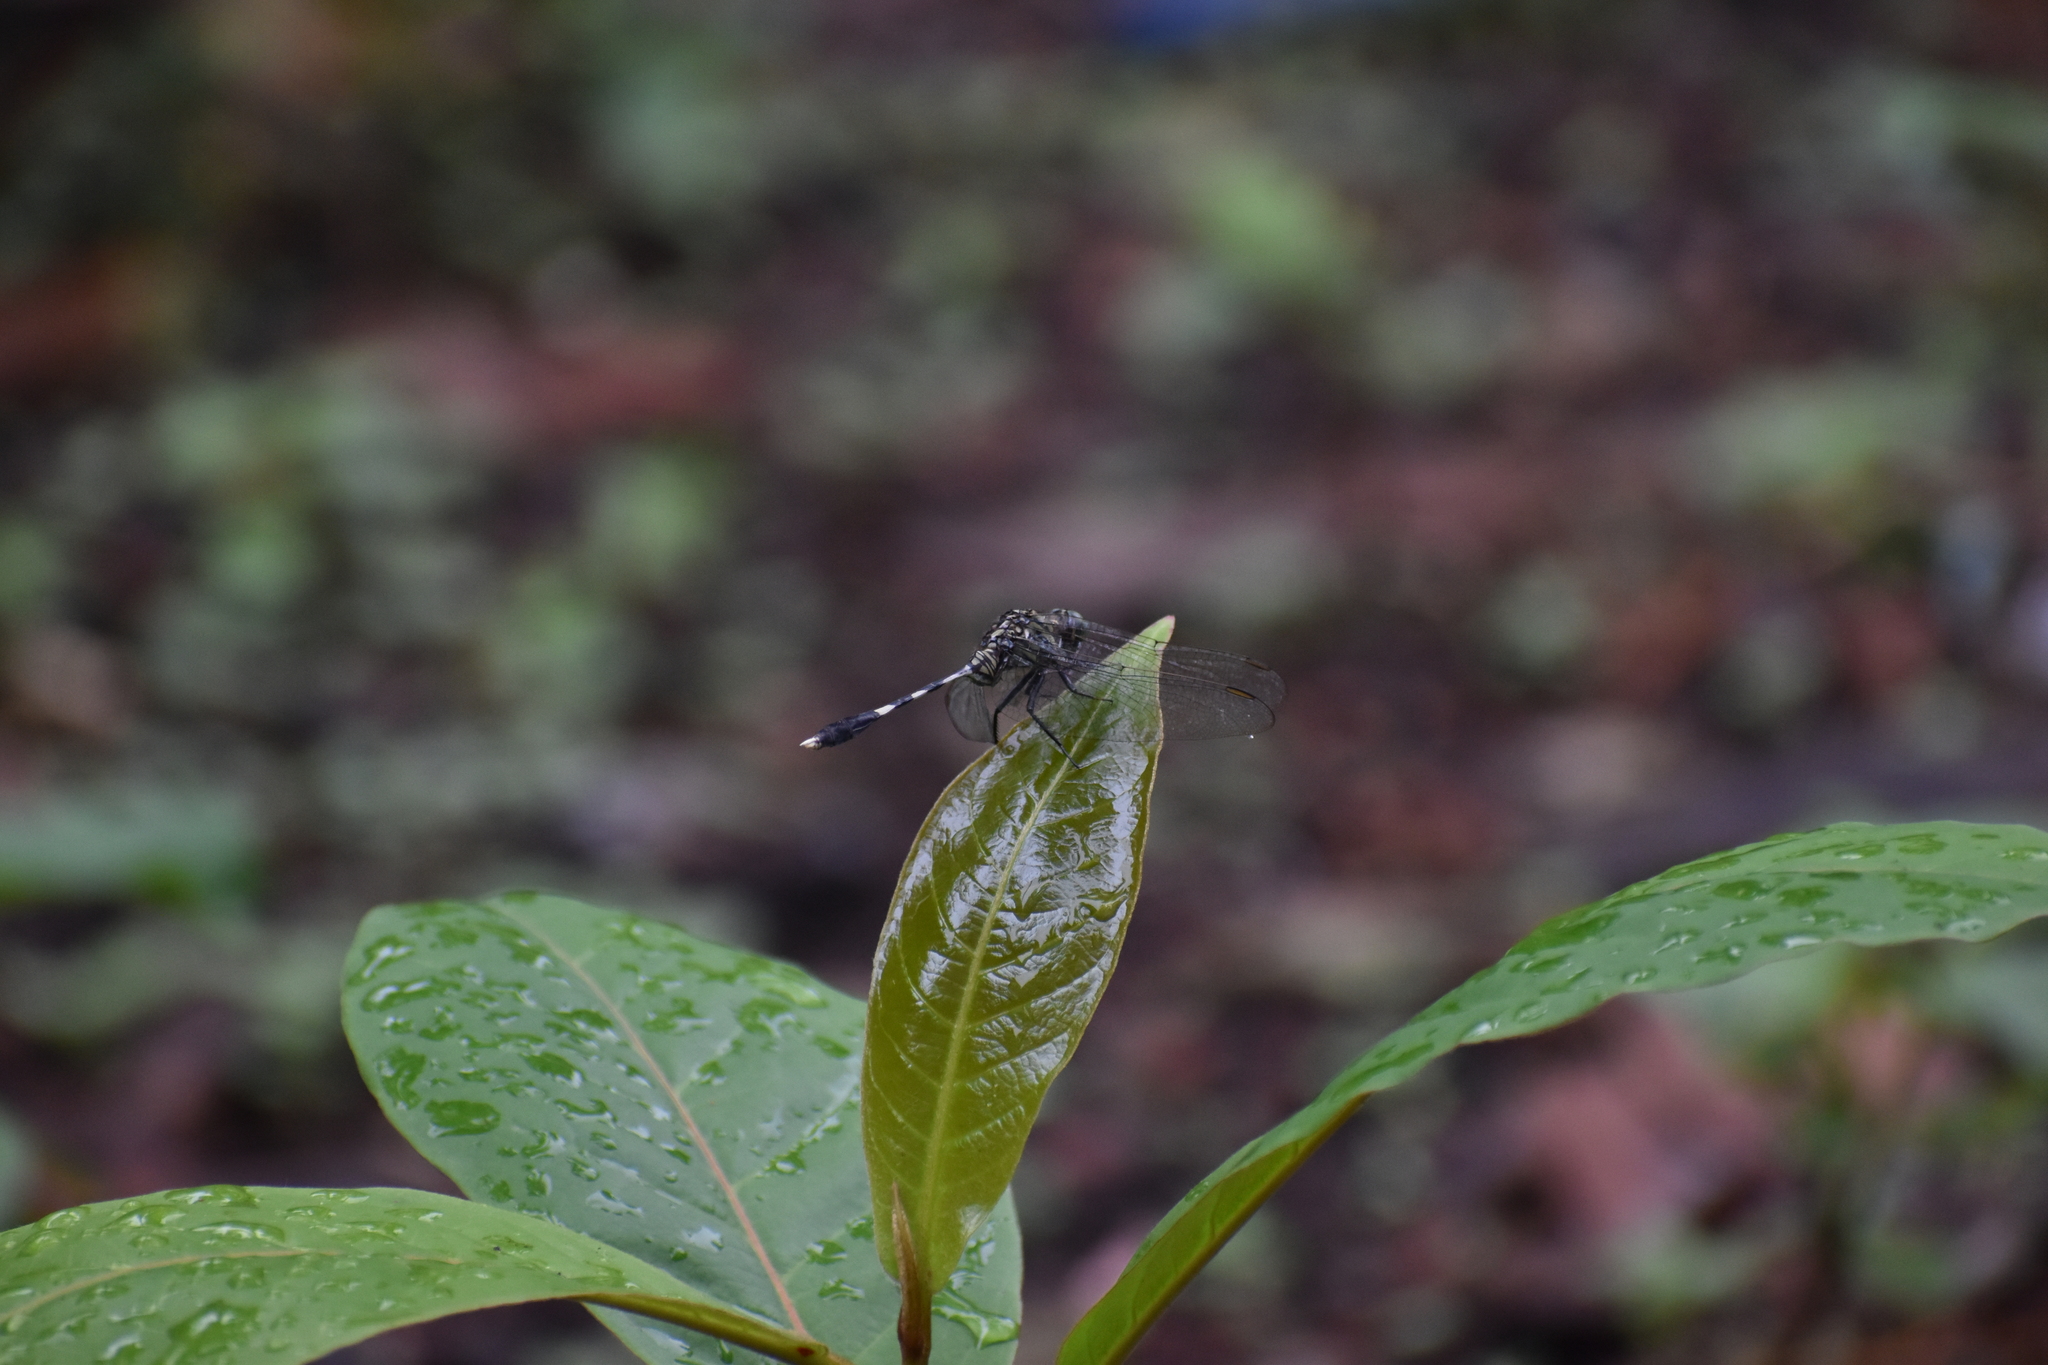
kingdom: Animalia
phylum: Arthropoda
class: Insecta
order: Odonata
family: Libellulidae
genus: Orthetrum
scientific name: Orthetrum sabina
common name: Slender skimmer
